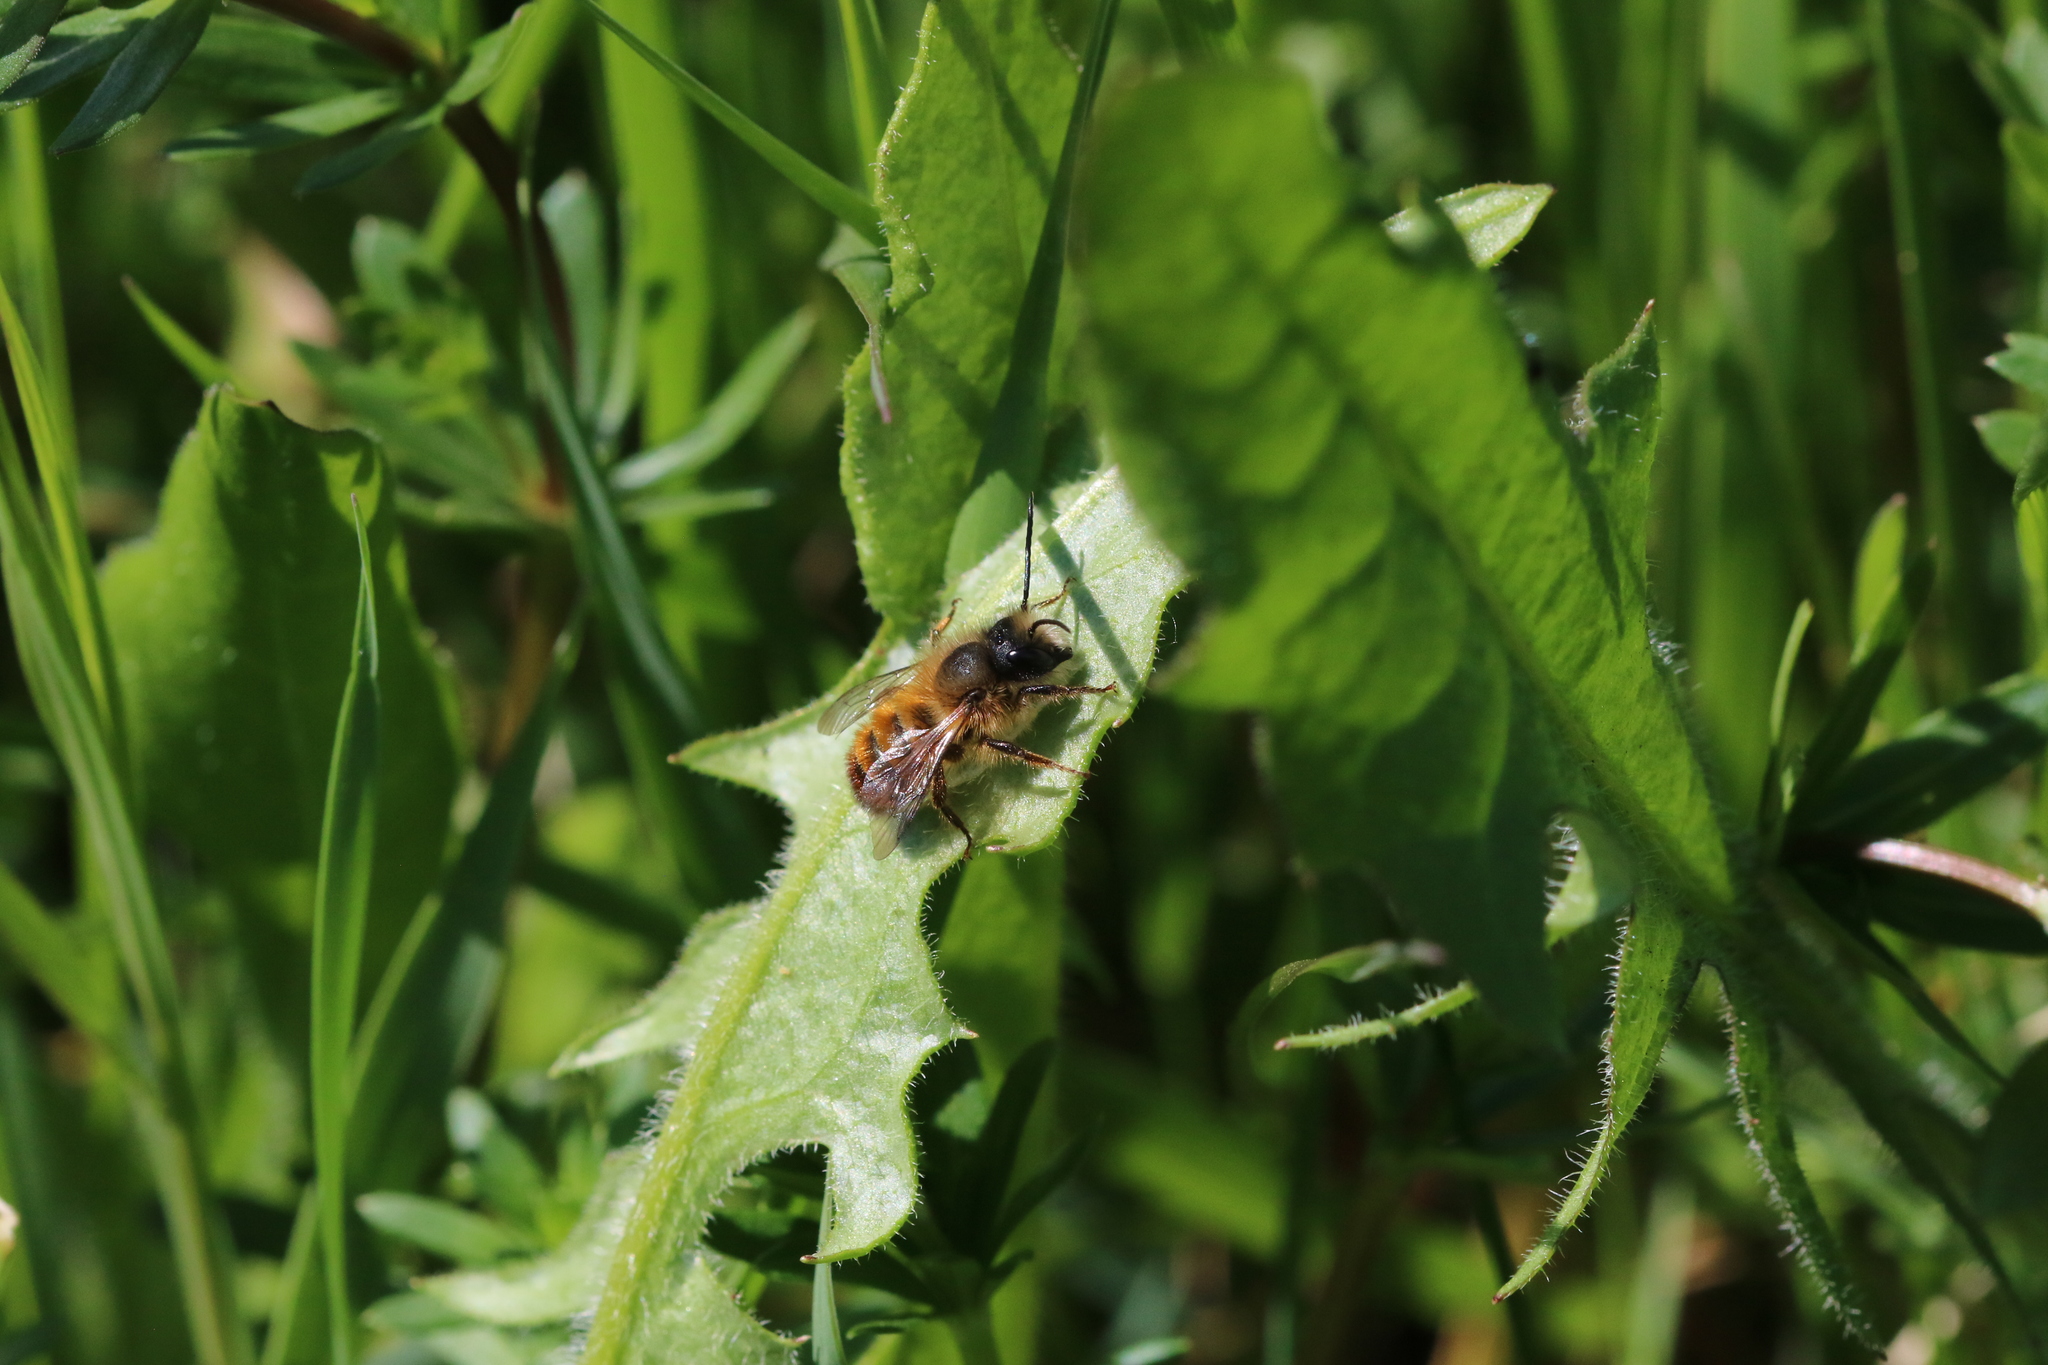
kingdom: Animalia
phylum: Arthropoda
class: Insecta
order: Hymenoptera
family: Megachilidae
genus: Osmia
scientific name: Osmia bicornis
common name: Red mason bee
